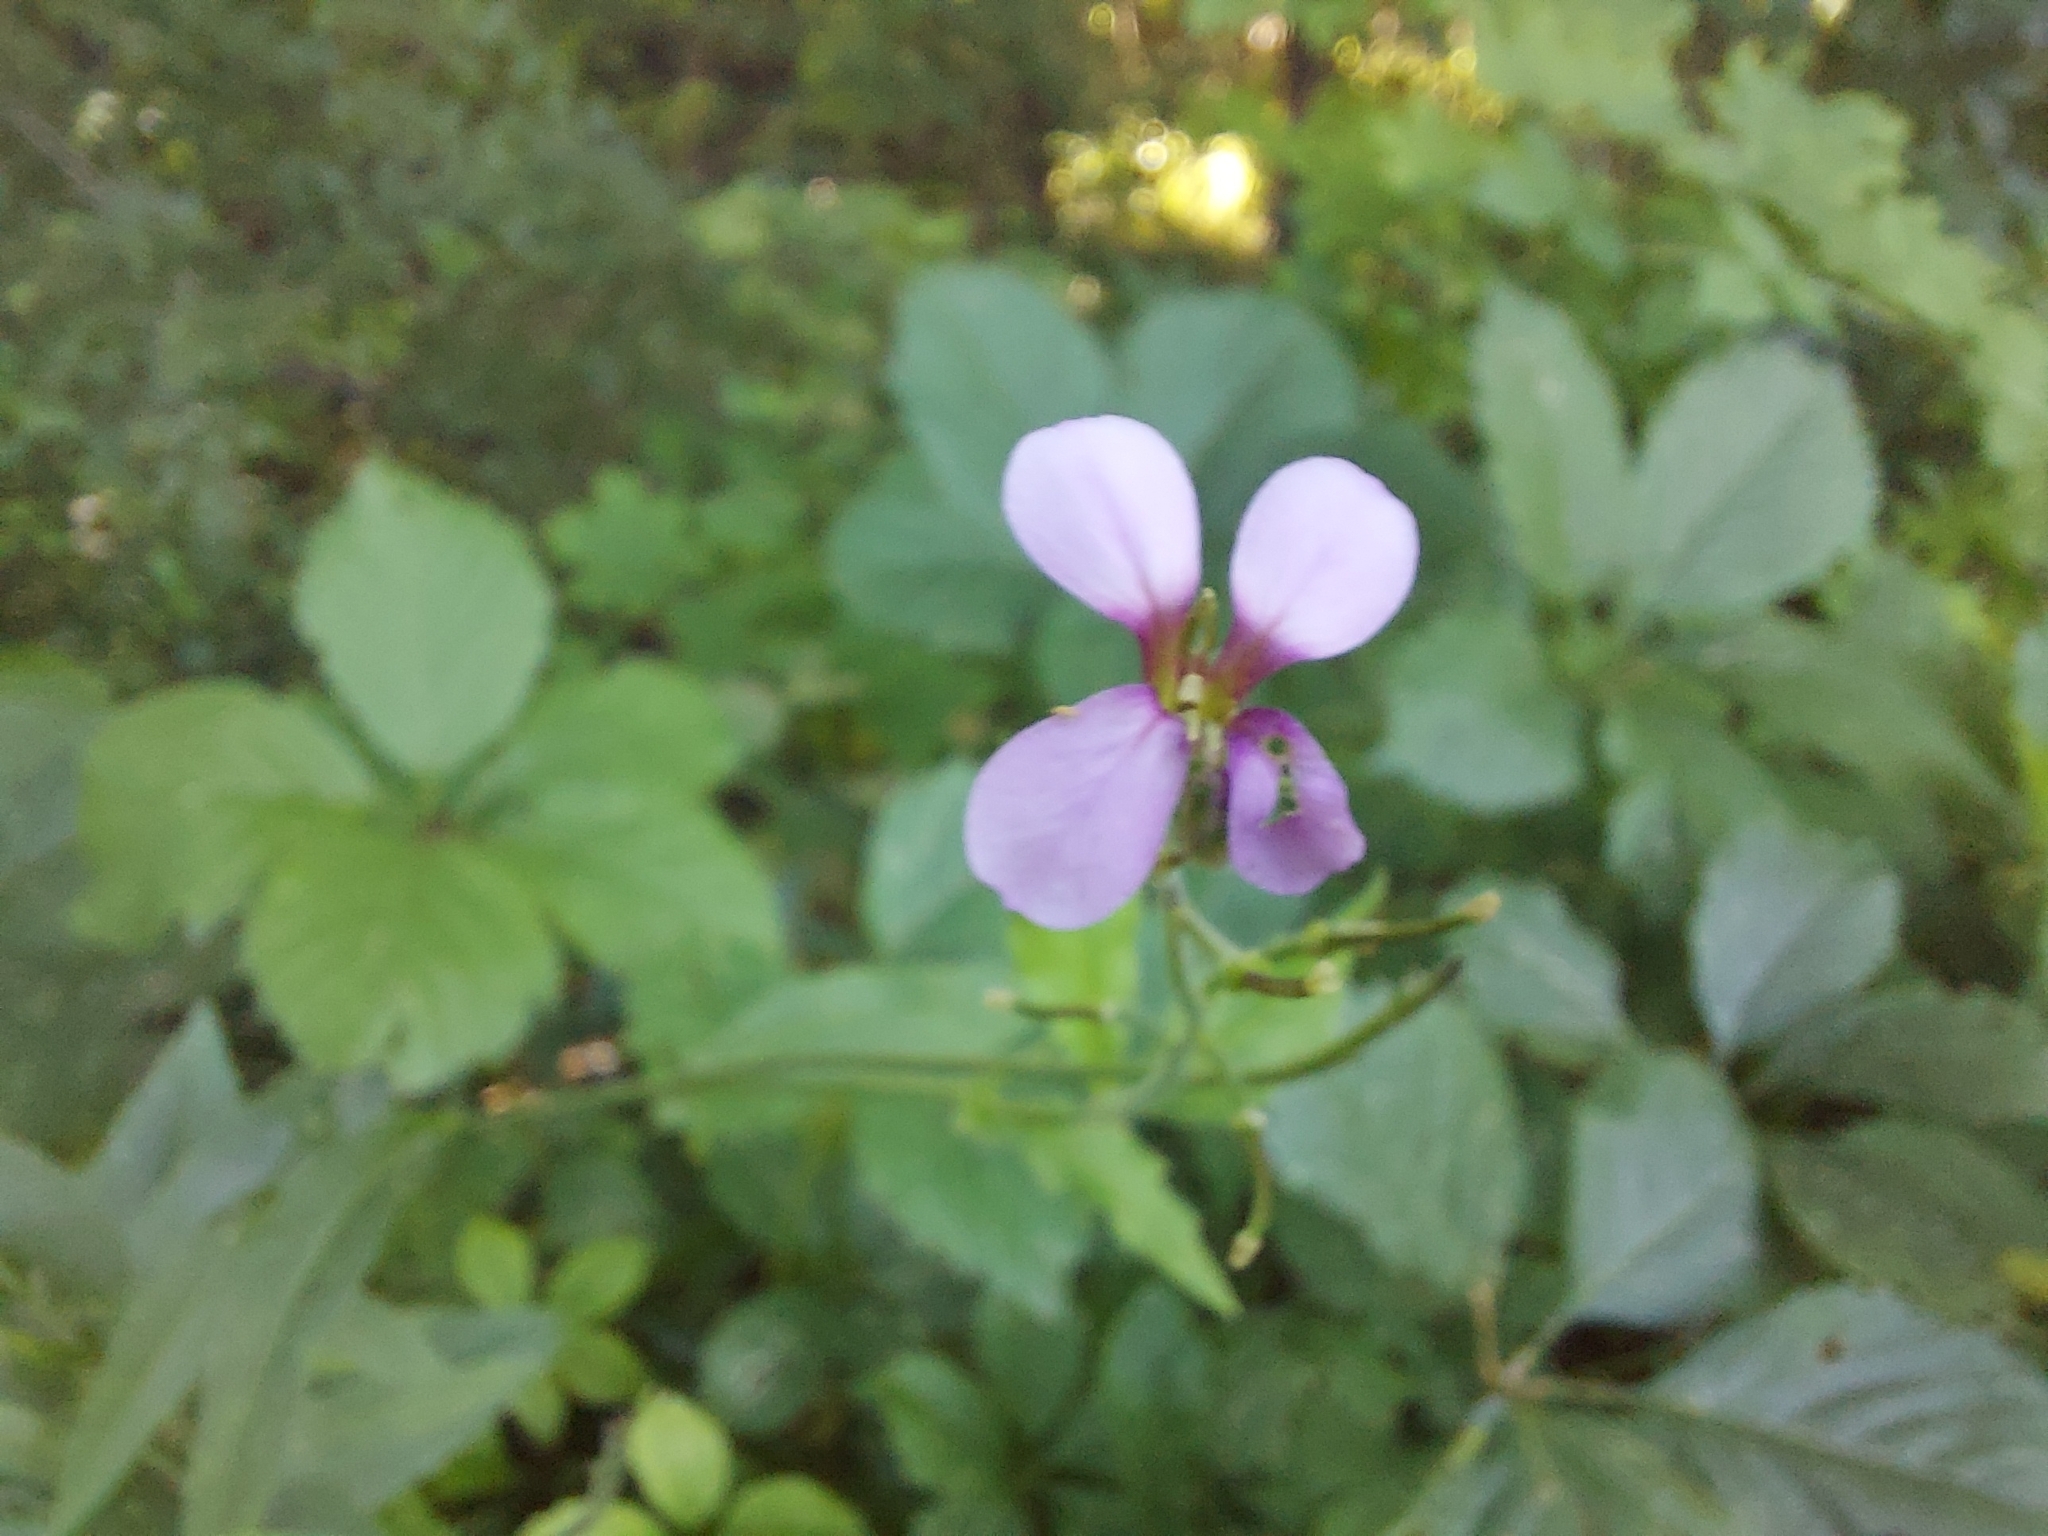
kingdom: Plantae
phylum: Tracheophyta
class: Magnoliopsida
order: Brassicales
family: Brassicaceae
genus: Hesperis
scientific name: Hesperis matronalis
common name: Dame's-violet
